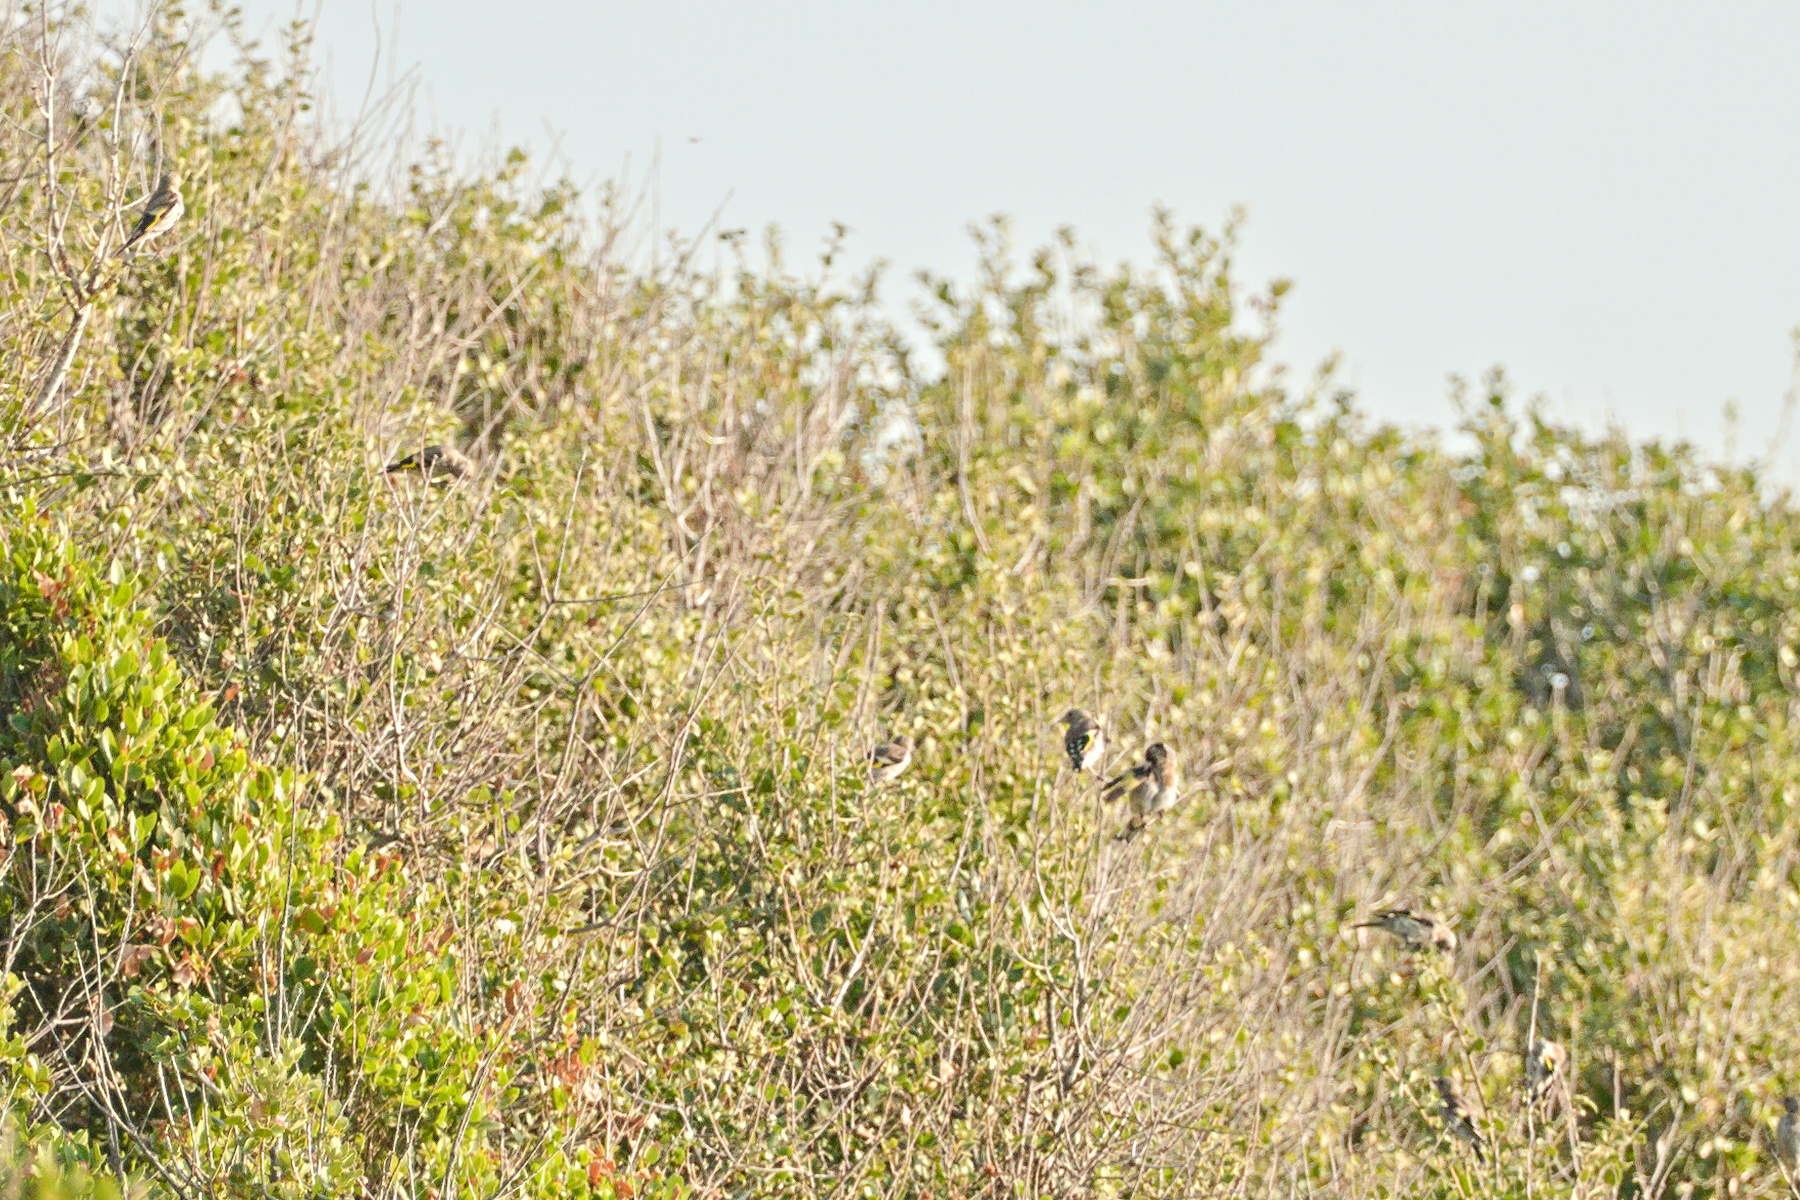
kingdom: Animalia
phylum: Chordata
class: Aves
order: Passeriformes
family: Fringillidae
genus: Carduelis
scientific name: Carduelis carduelis
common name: European goldfinch
